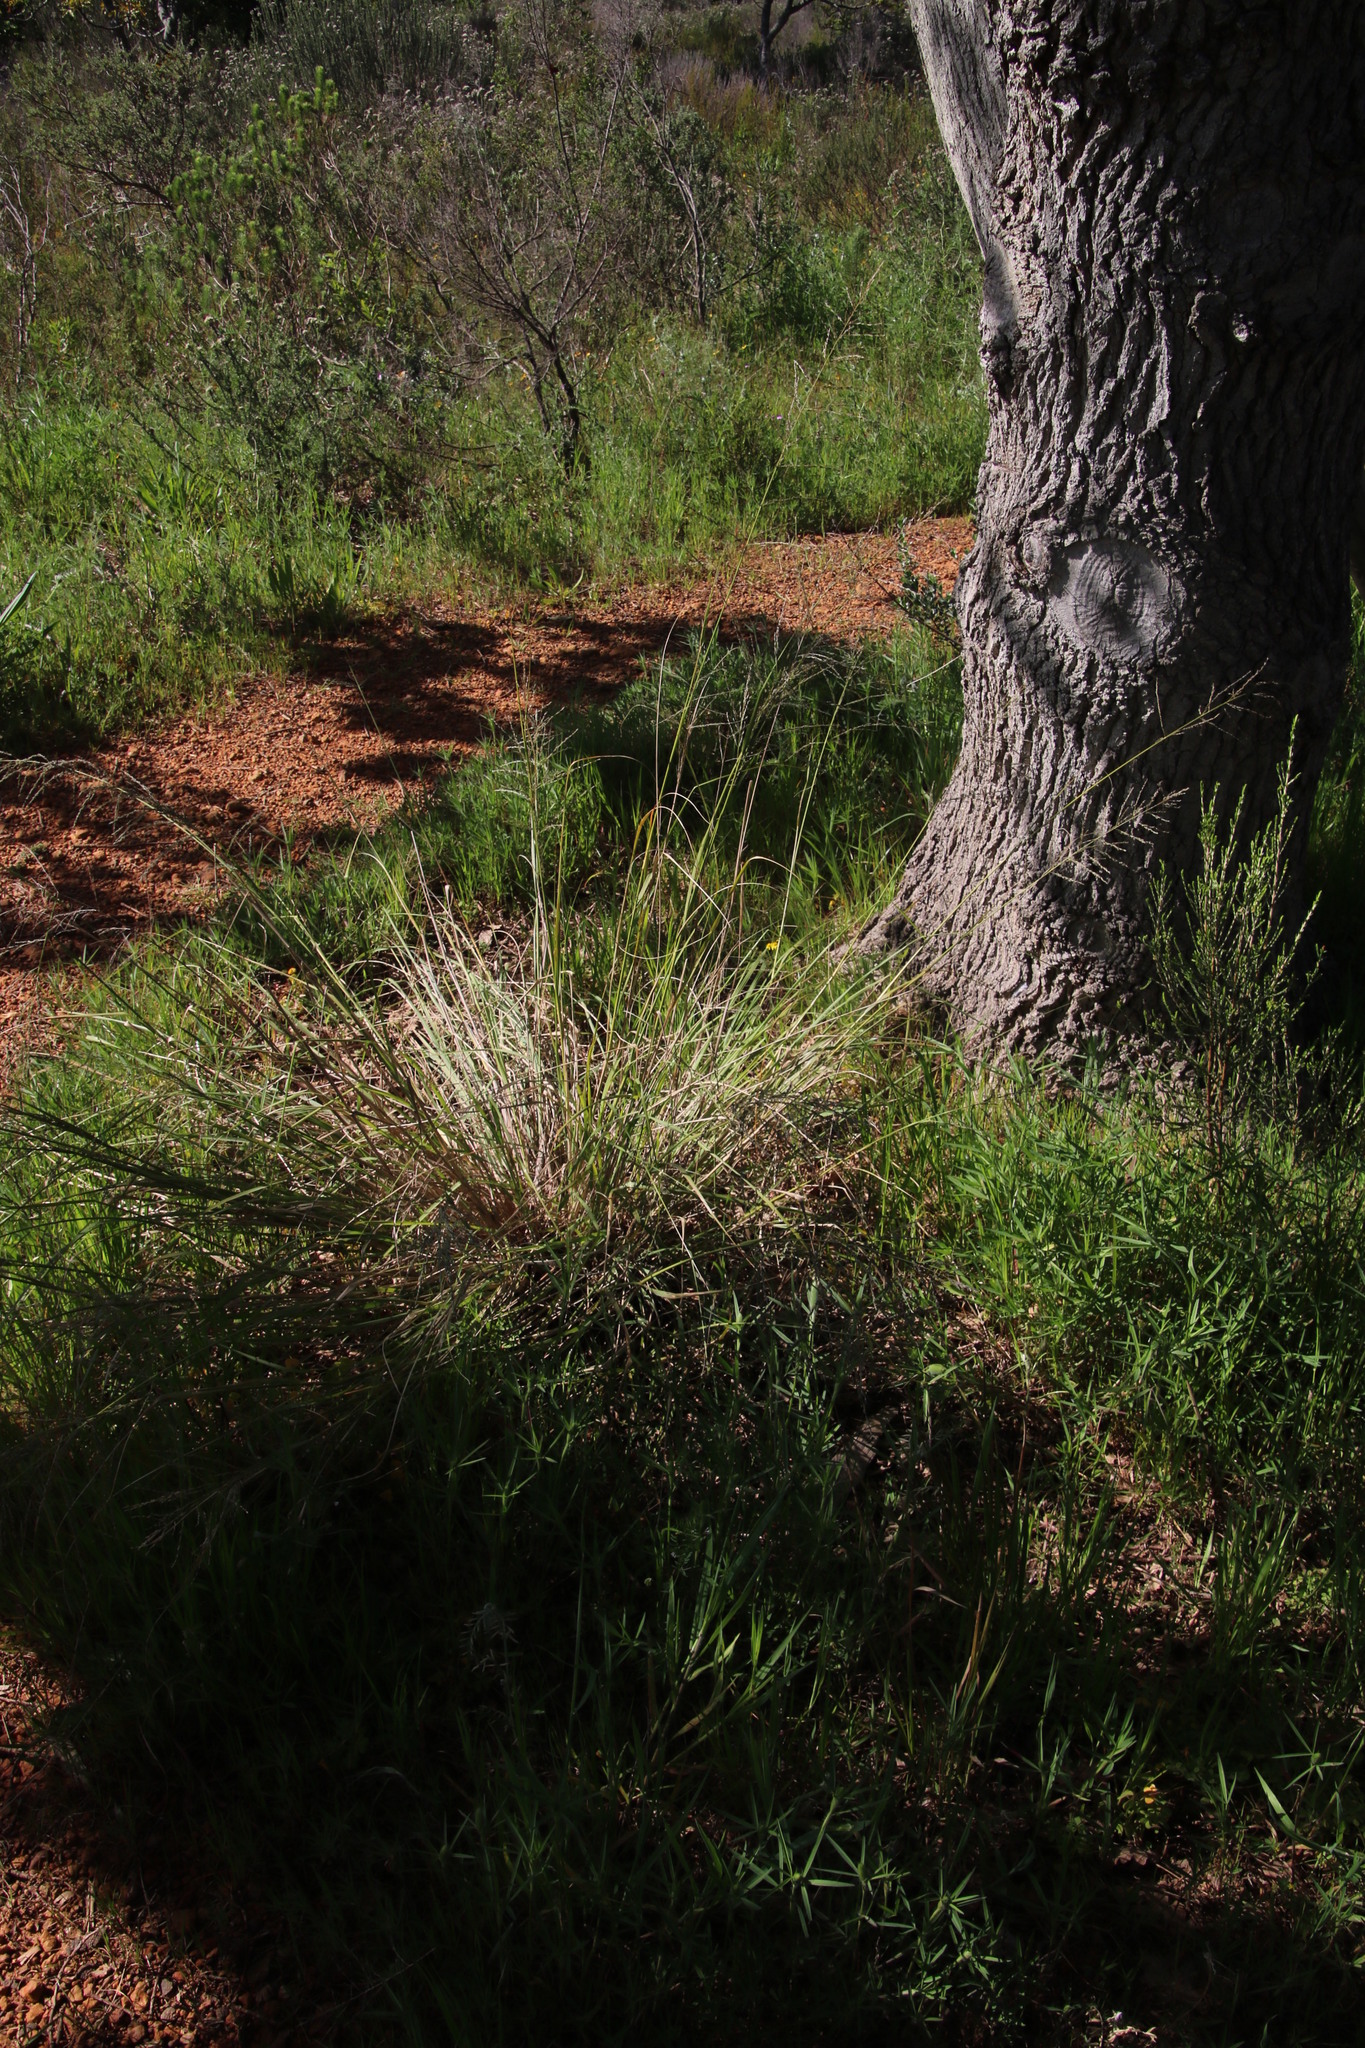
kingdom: Plantae
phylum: Tracheophyta
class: Liliopsida
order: Poales
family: Poaceae
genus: Eragrostis
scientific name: Eragrostis curvula
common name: African love-grass
